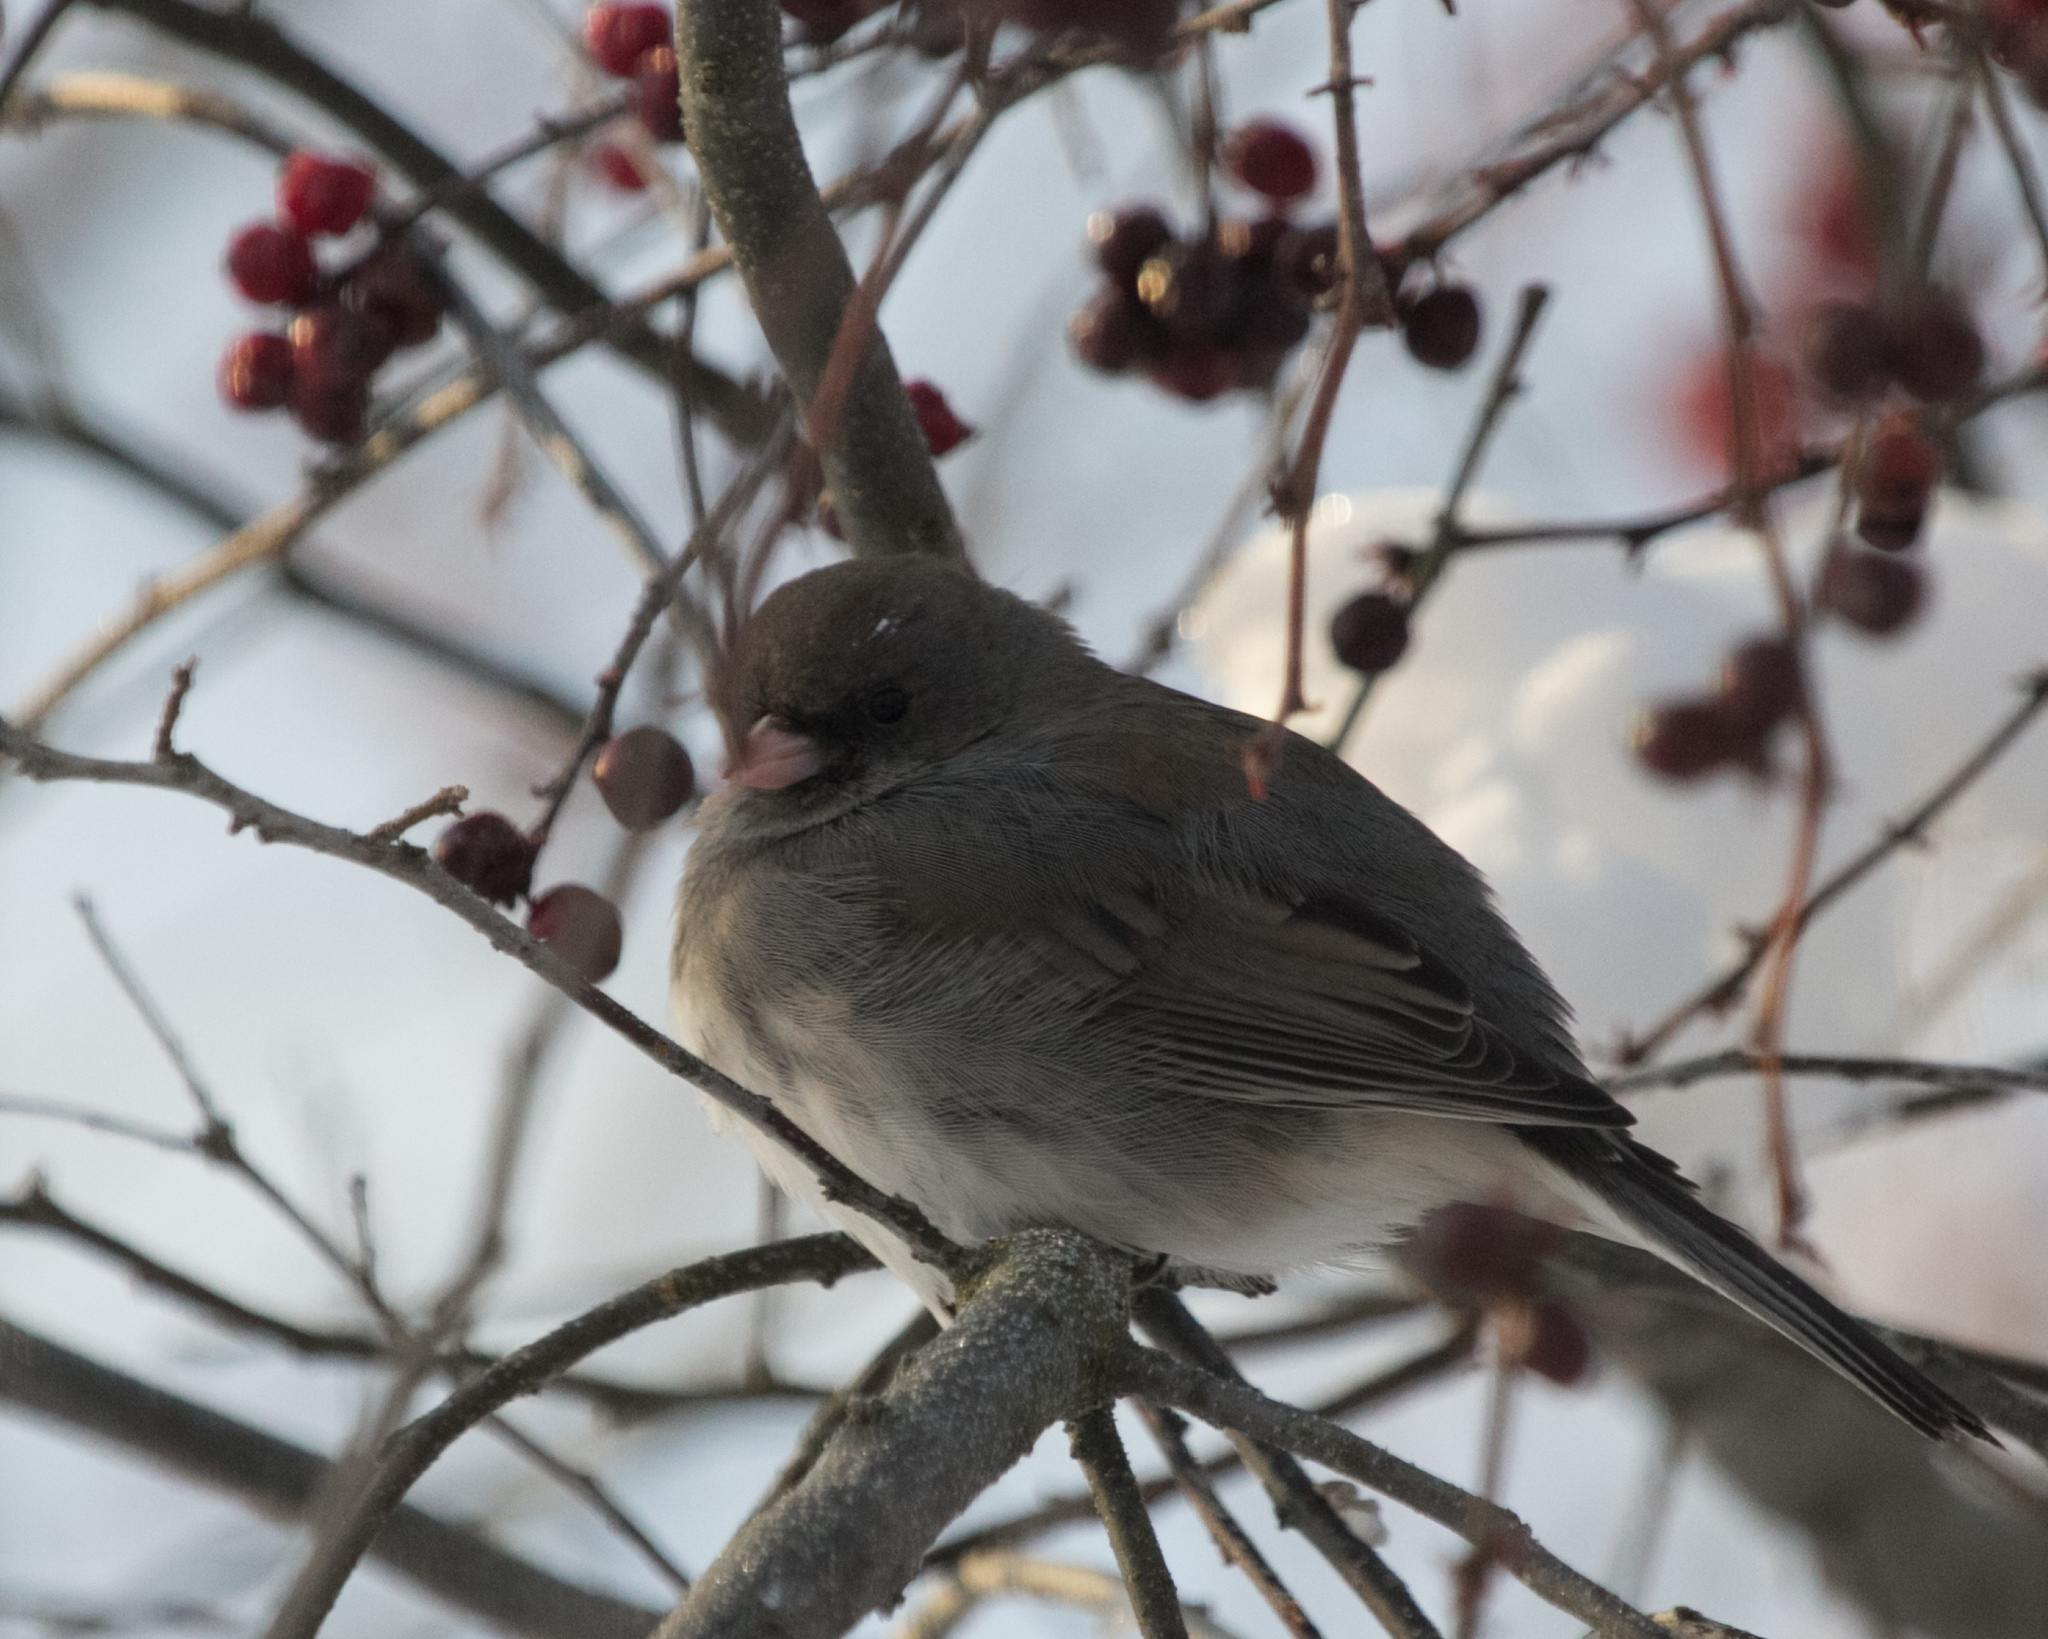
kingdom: Animalia
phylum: Chordata
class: Aves
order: Passeriformes
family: Passerellidae
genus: Junco
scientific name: Junco hyemalis
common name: Dark-eyed junco
